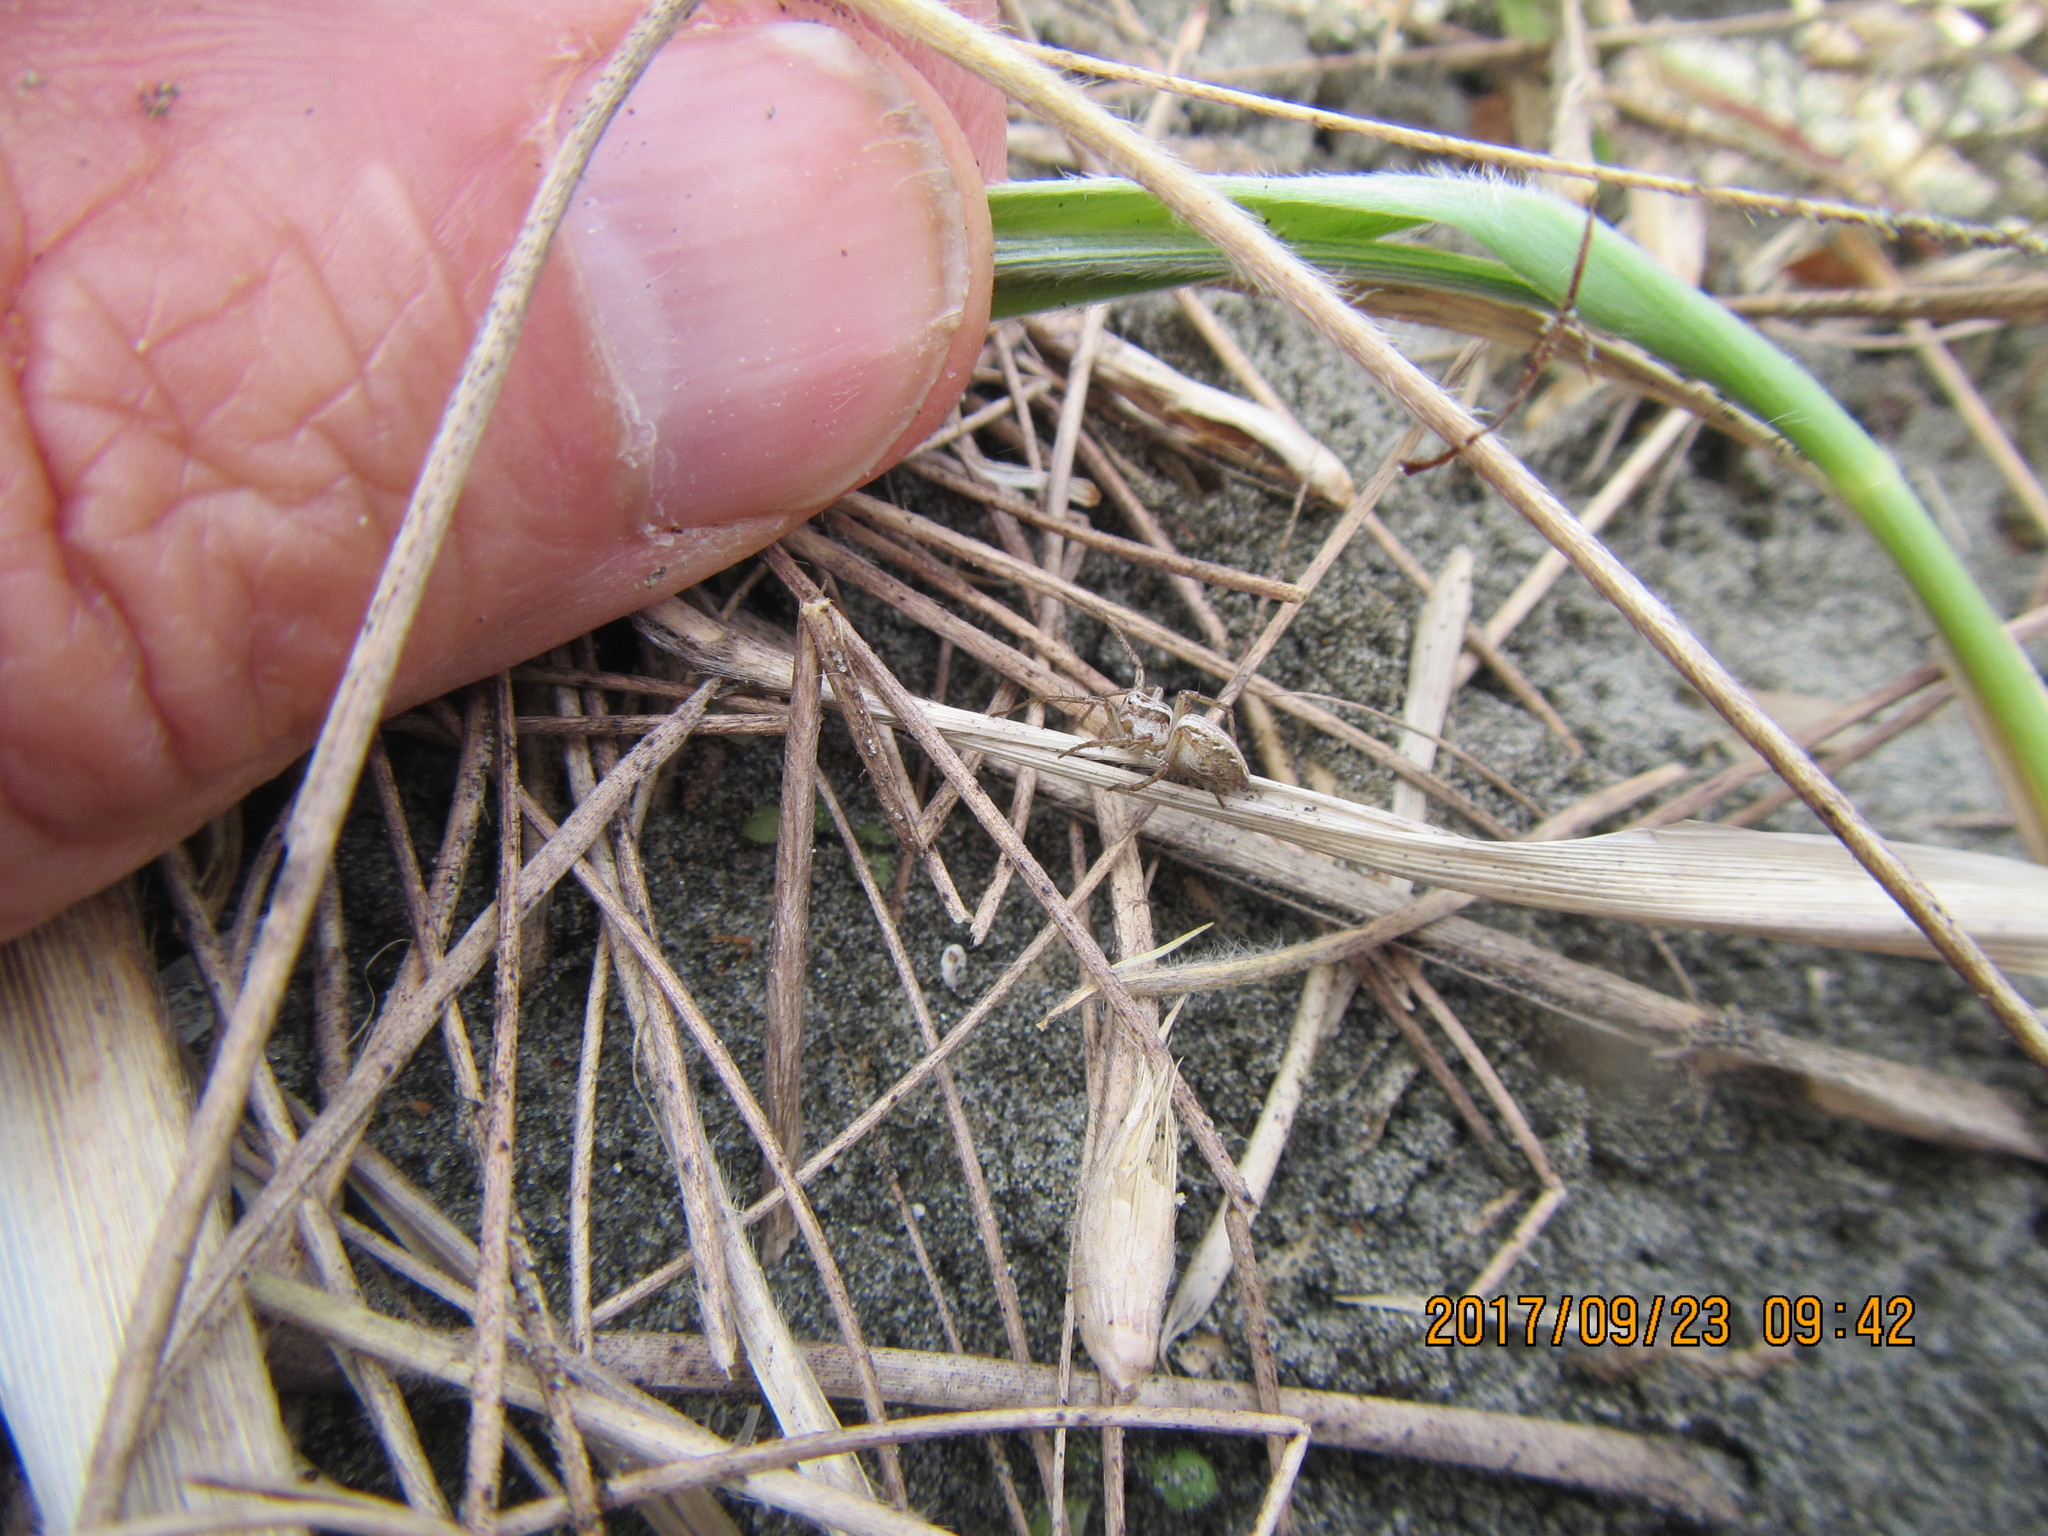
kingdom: Animalia
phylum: Arthropoda
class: Arachnida
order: Araneae
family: Oxyopidae
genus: Oxyopes
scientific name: Oxyopes gracilipes
